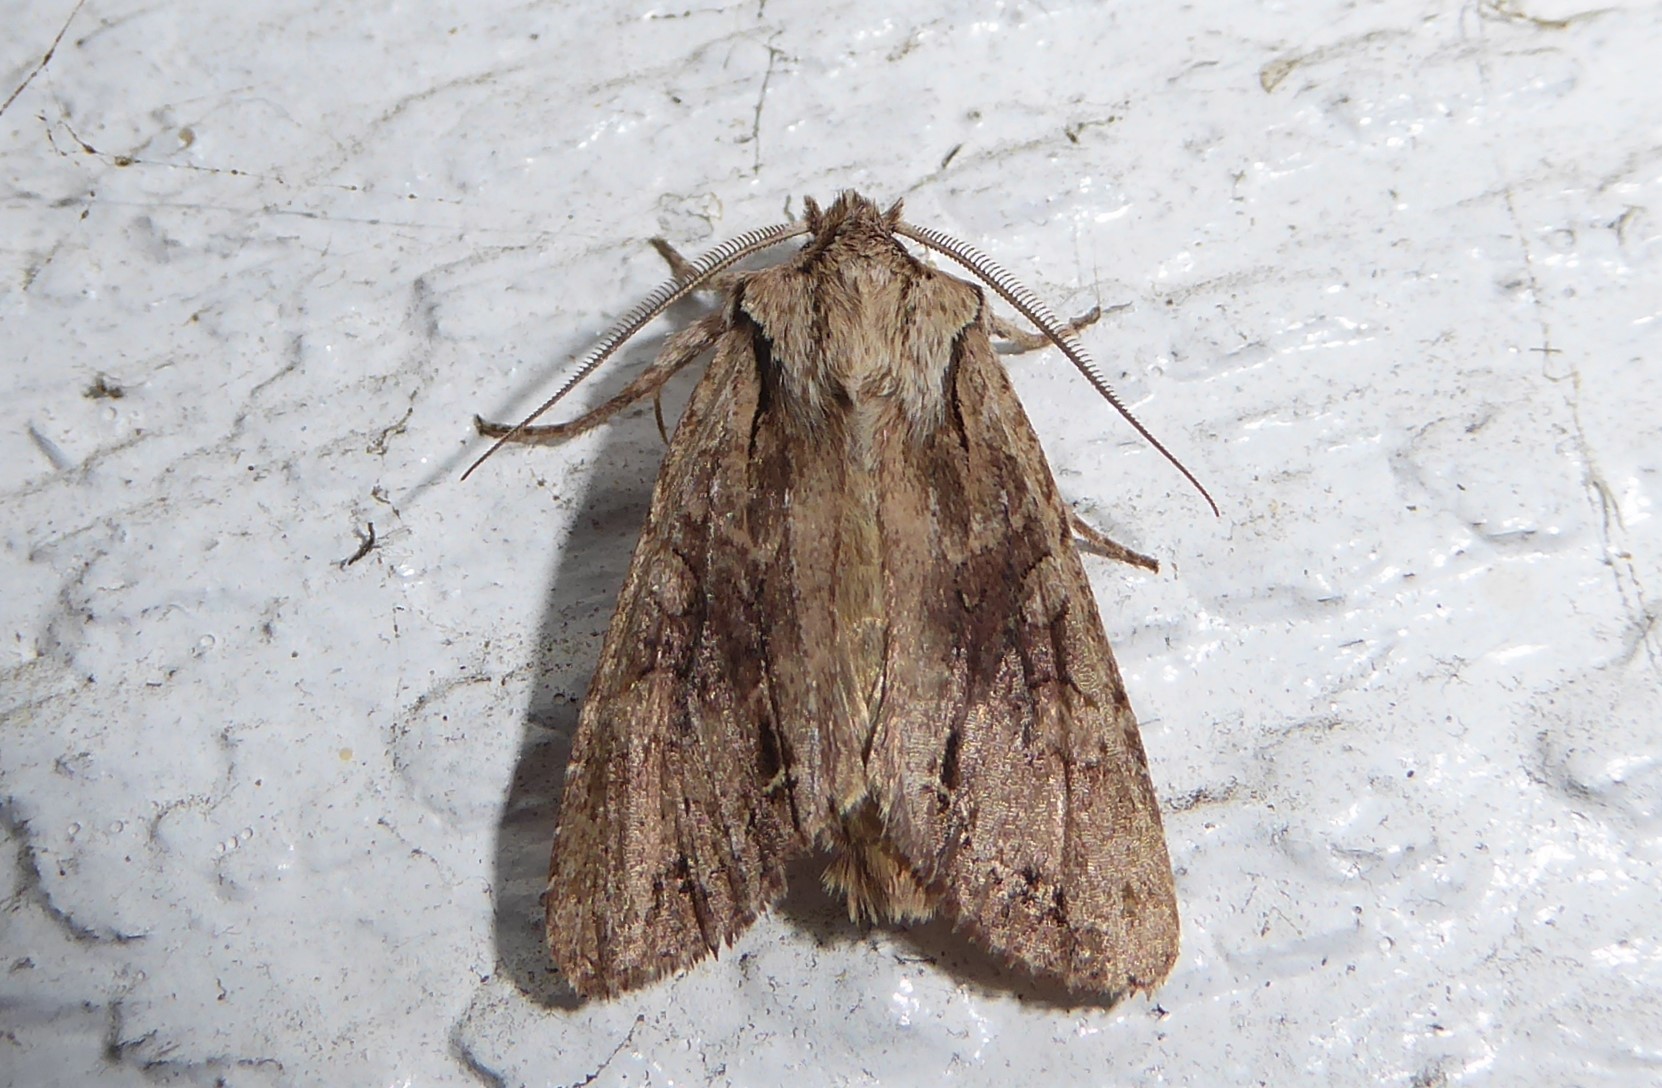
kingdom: Animalia
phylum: Arthropoda
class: Insecta
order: Lepidoptera
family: Noctuidae
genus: Ichneutica
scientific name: Ichneutica mutans
